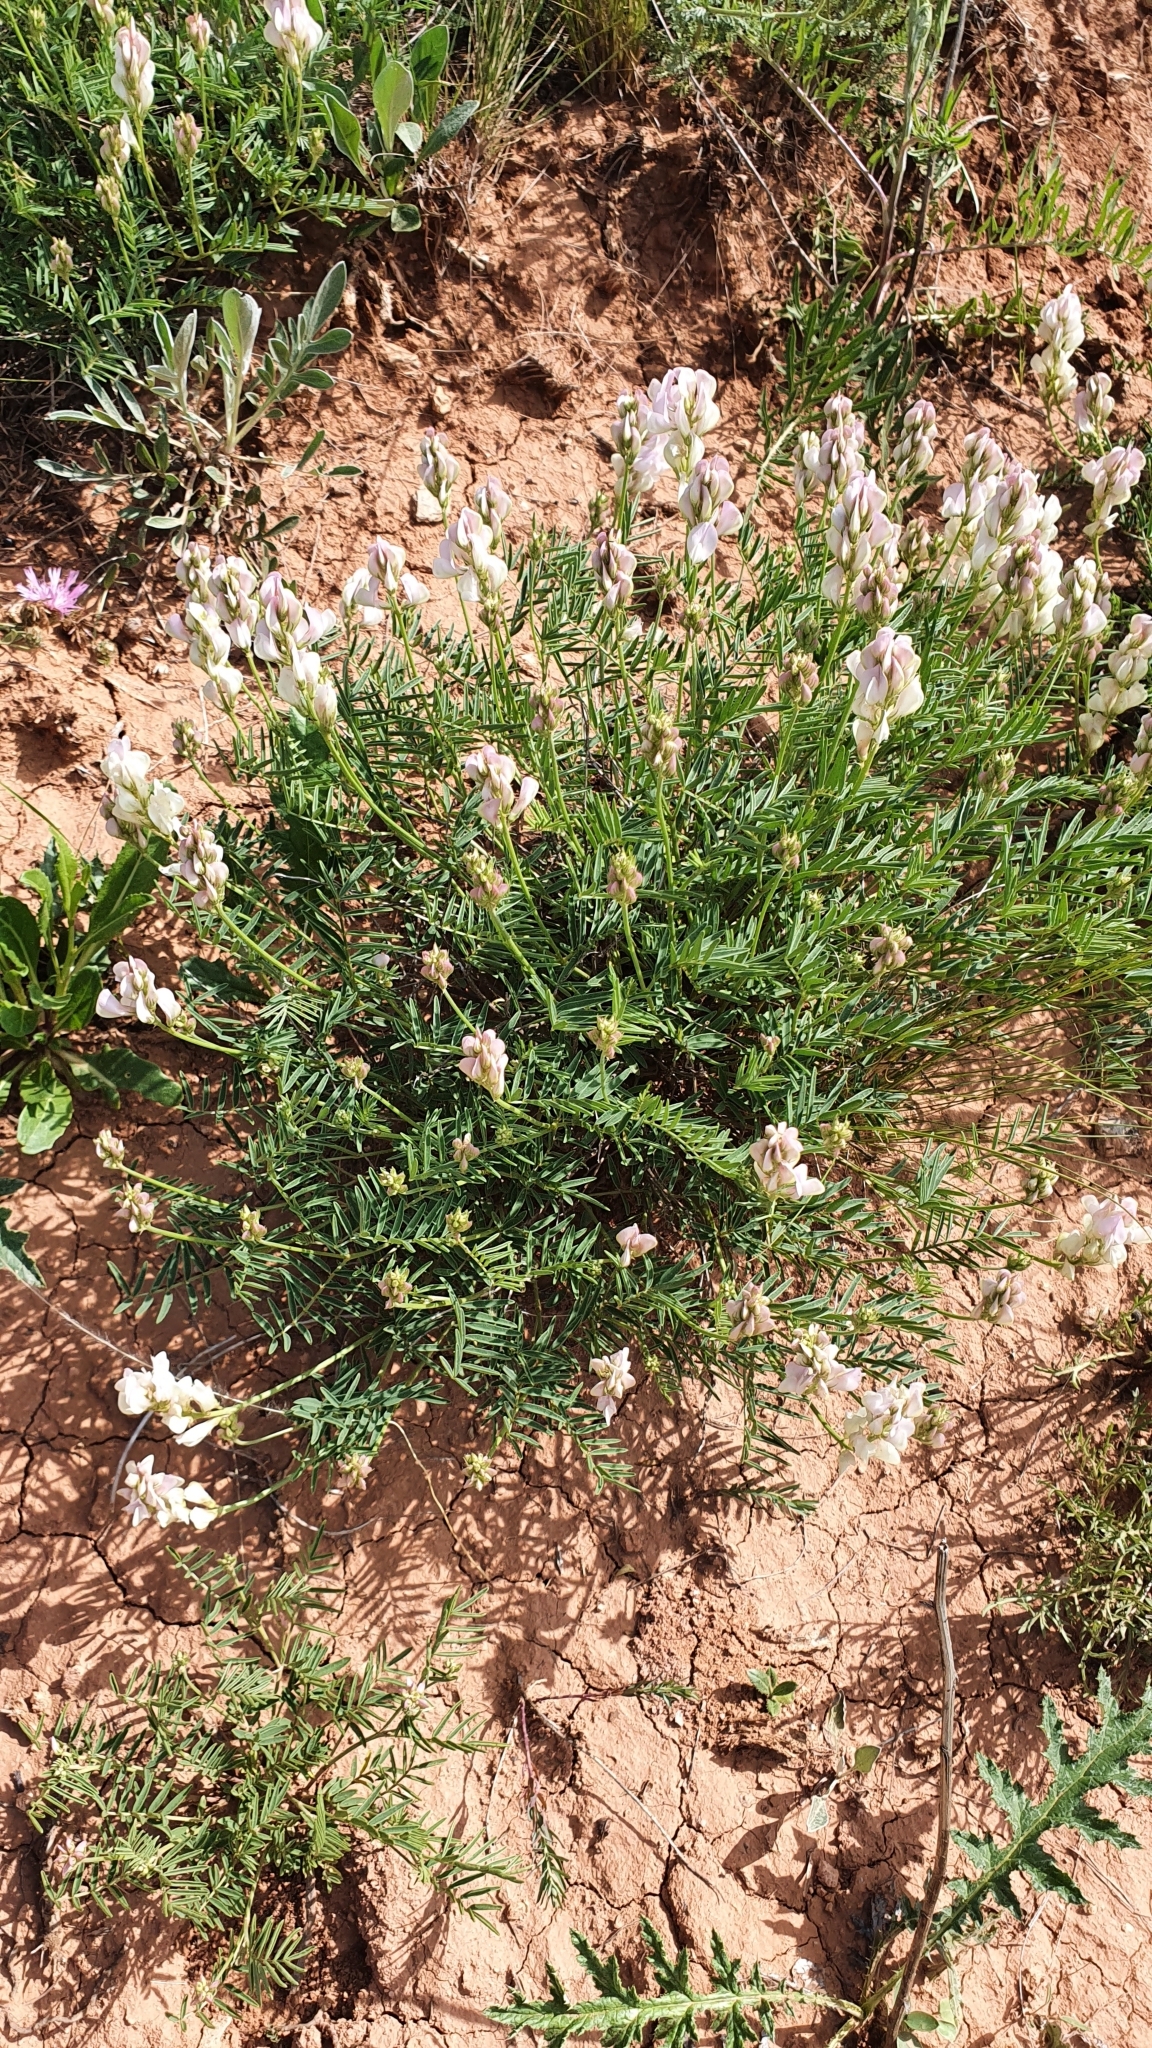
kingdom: Plantae
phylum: Tracheophyta
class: Magnoliopsida
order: Fabales
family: Fabaceae
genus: Hedysarum
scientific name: Hedysarum razoumovianum
